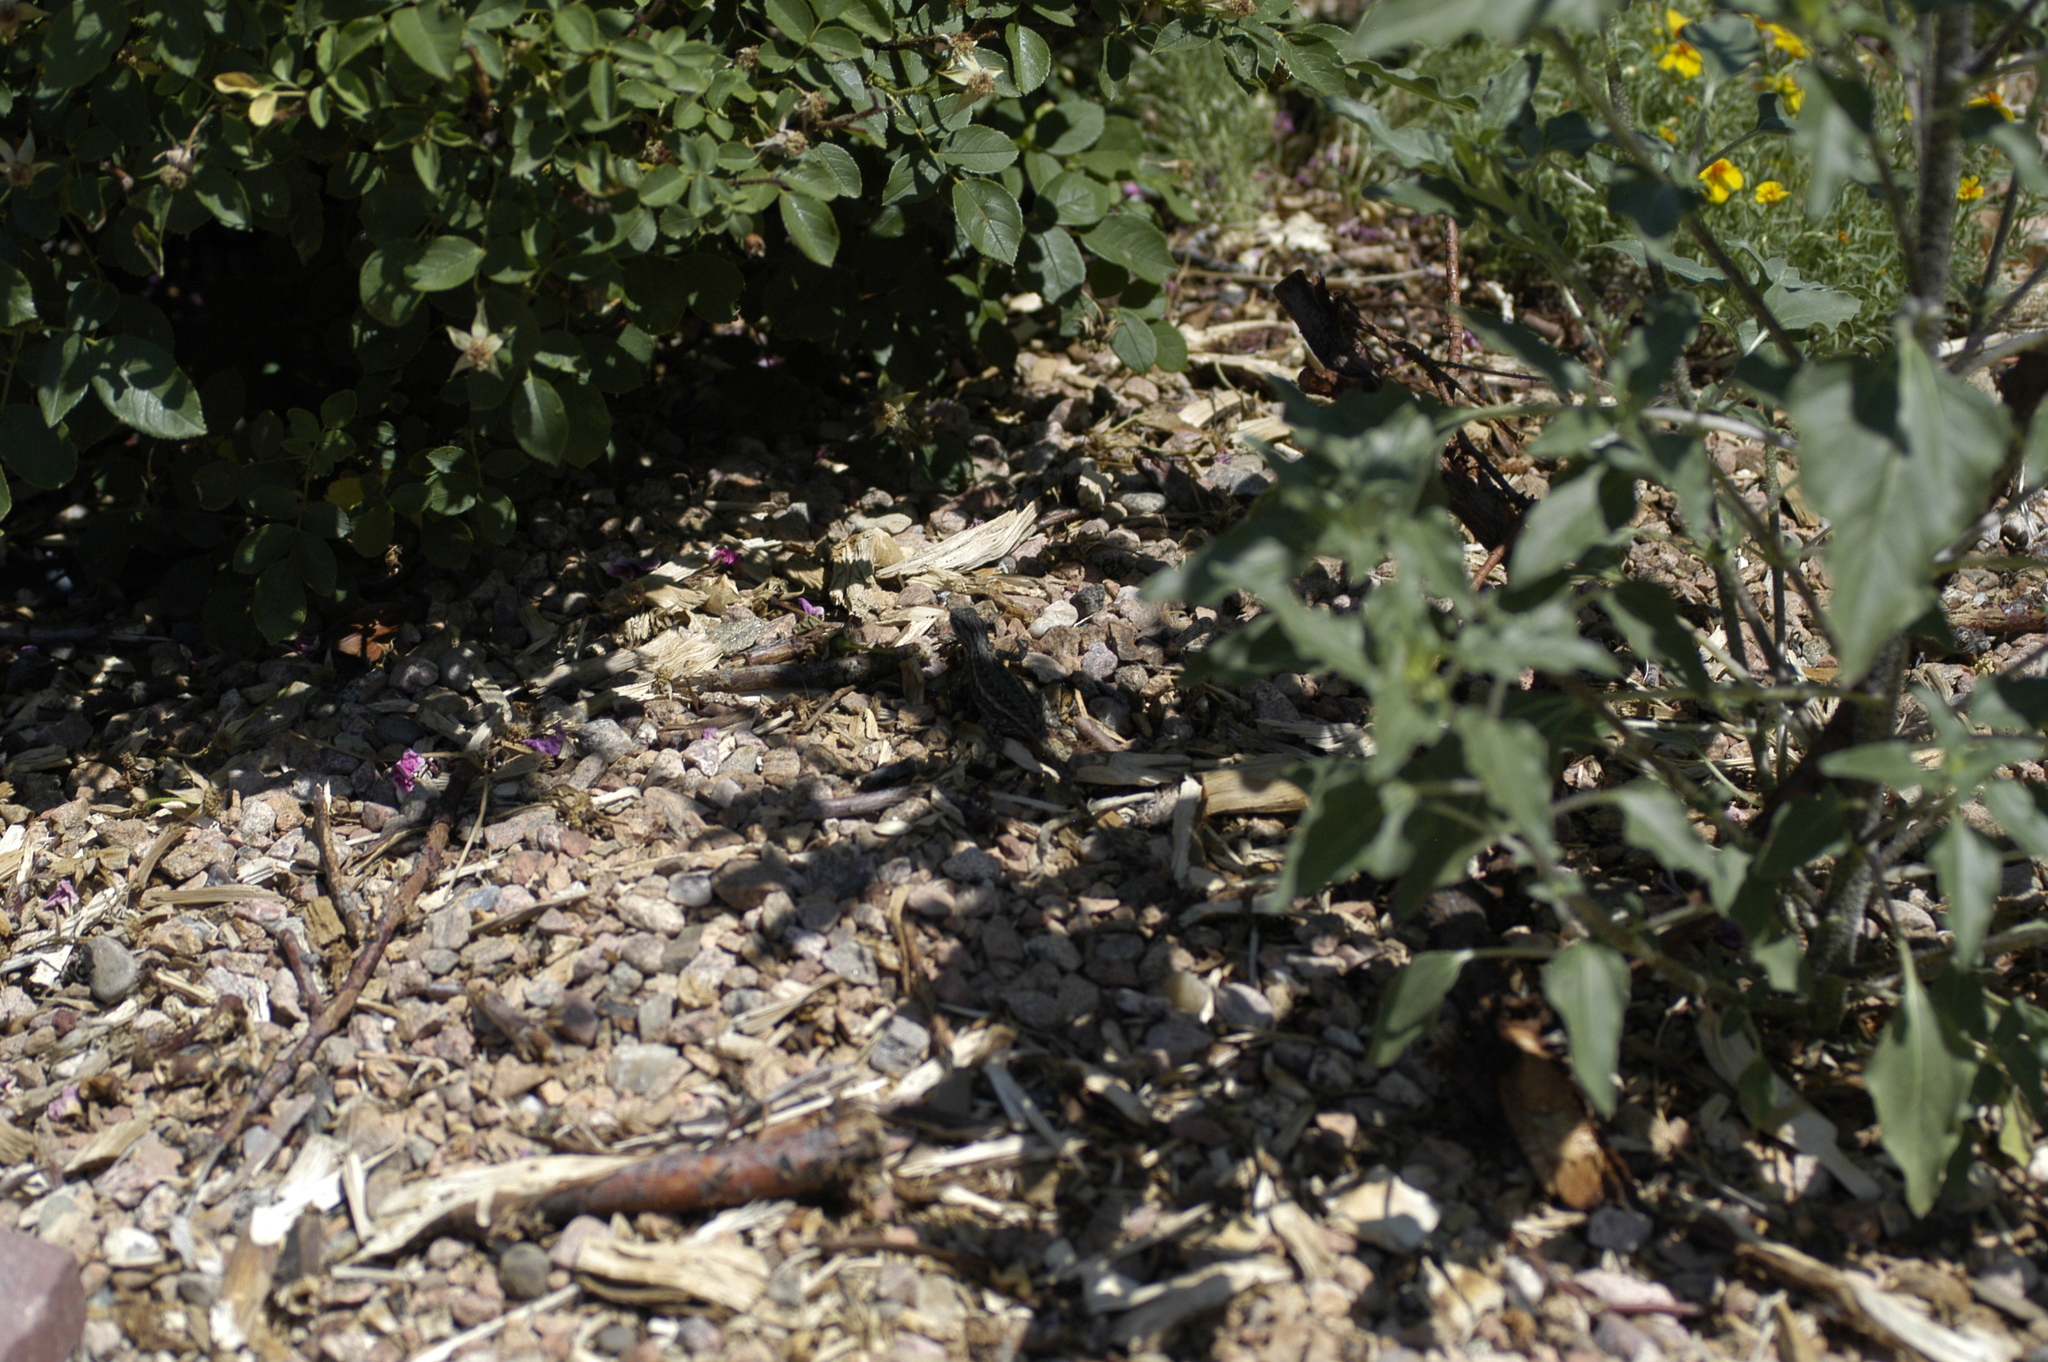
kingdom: Animalia
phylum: Chordata
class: Squamata
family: Phrynosomatidae
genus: Sceloporus
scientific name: Sceloporus cowlesi
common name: White sands prairie lizard
